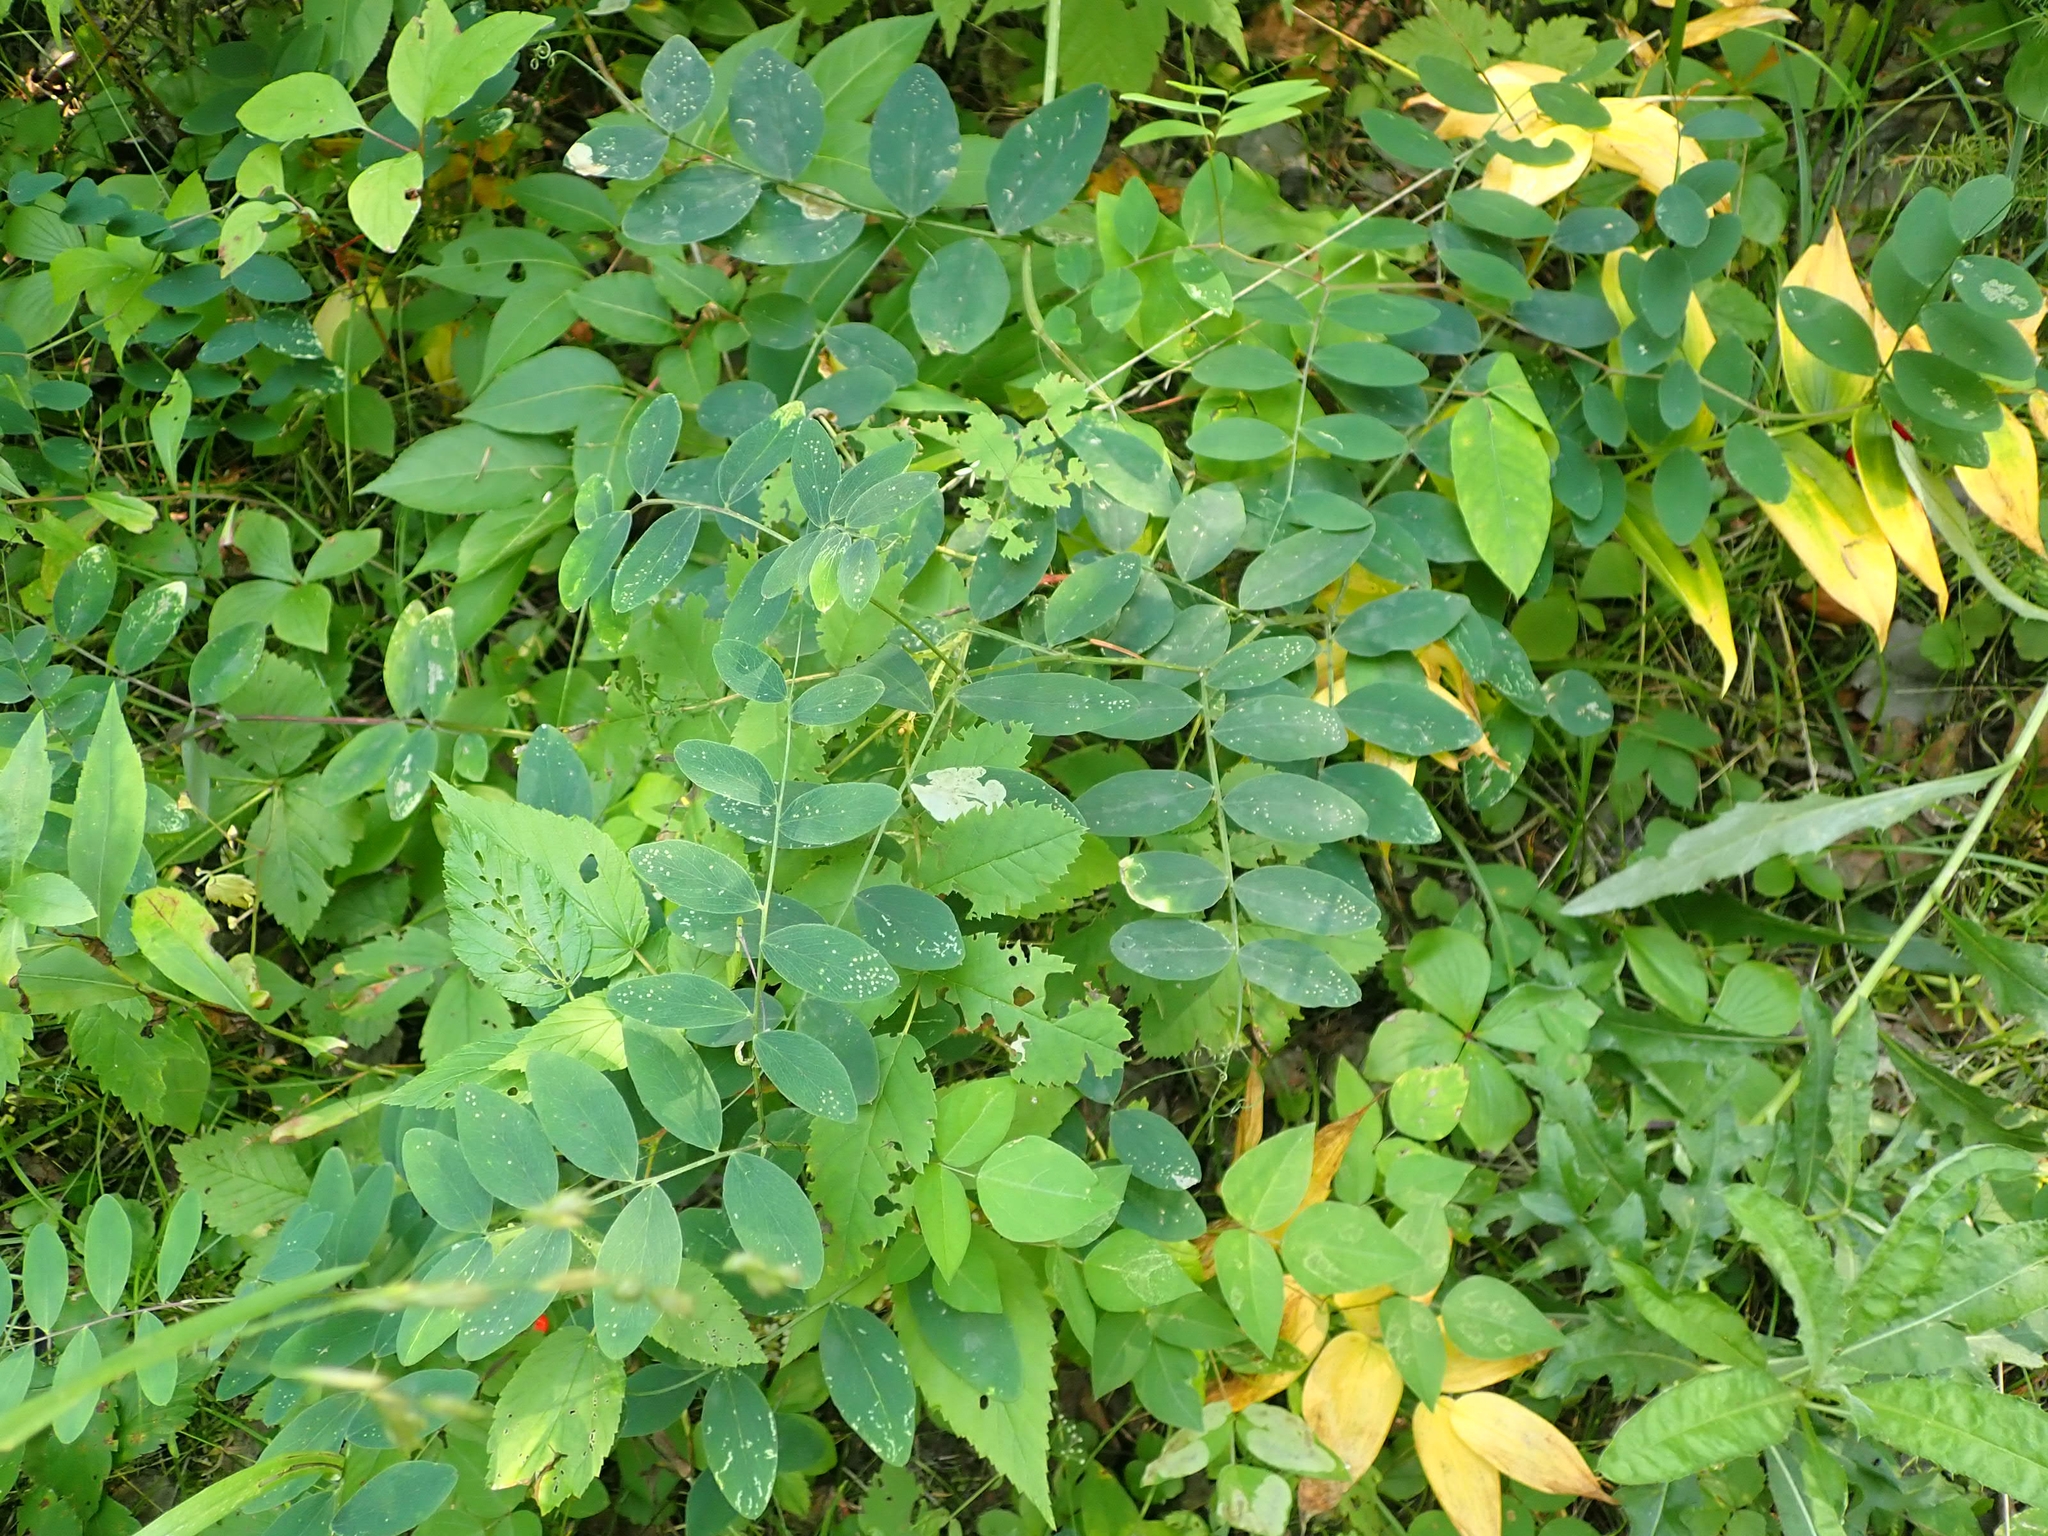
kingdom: Plantae
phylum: Tracheophyta
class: Magnoliopsida
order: Fabales
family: Fabaceae
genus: Lathyrus
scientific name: Lathyrus venosus
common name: Forest-pea
